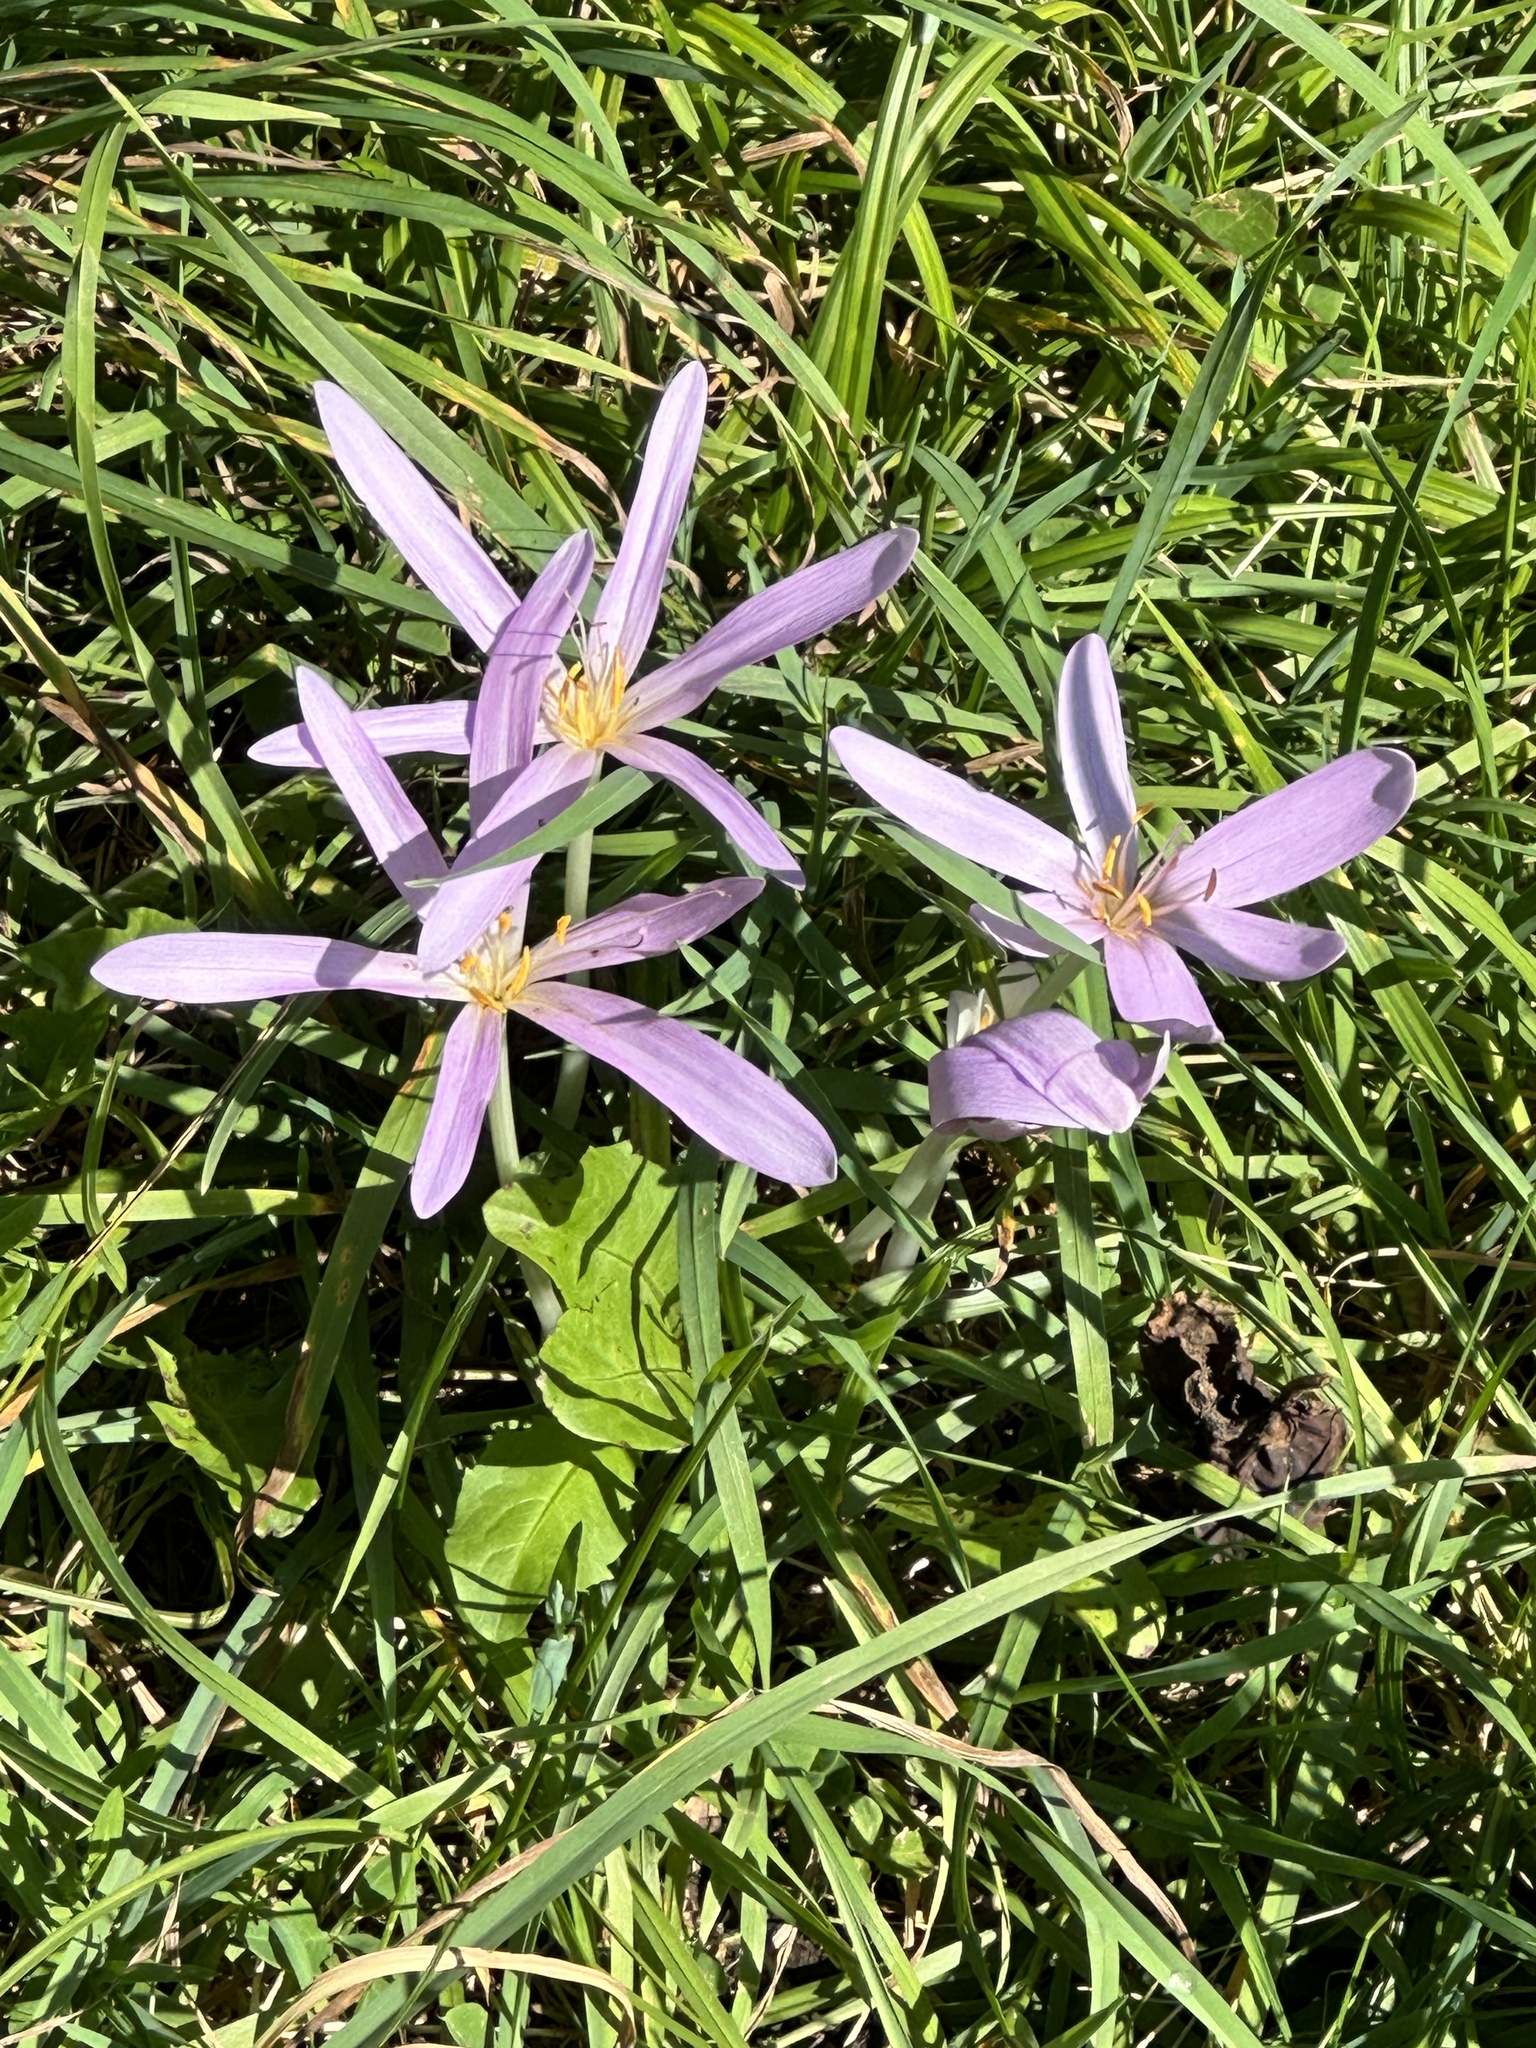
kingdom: Plantae
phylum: Tracheophyta
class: Liliopsida
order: Liliales
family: Colchicaceae
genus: Colchicum
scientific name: Colchicum autumnale
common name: Autumn crocus
